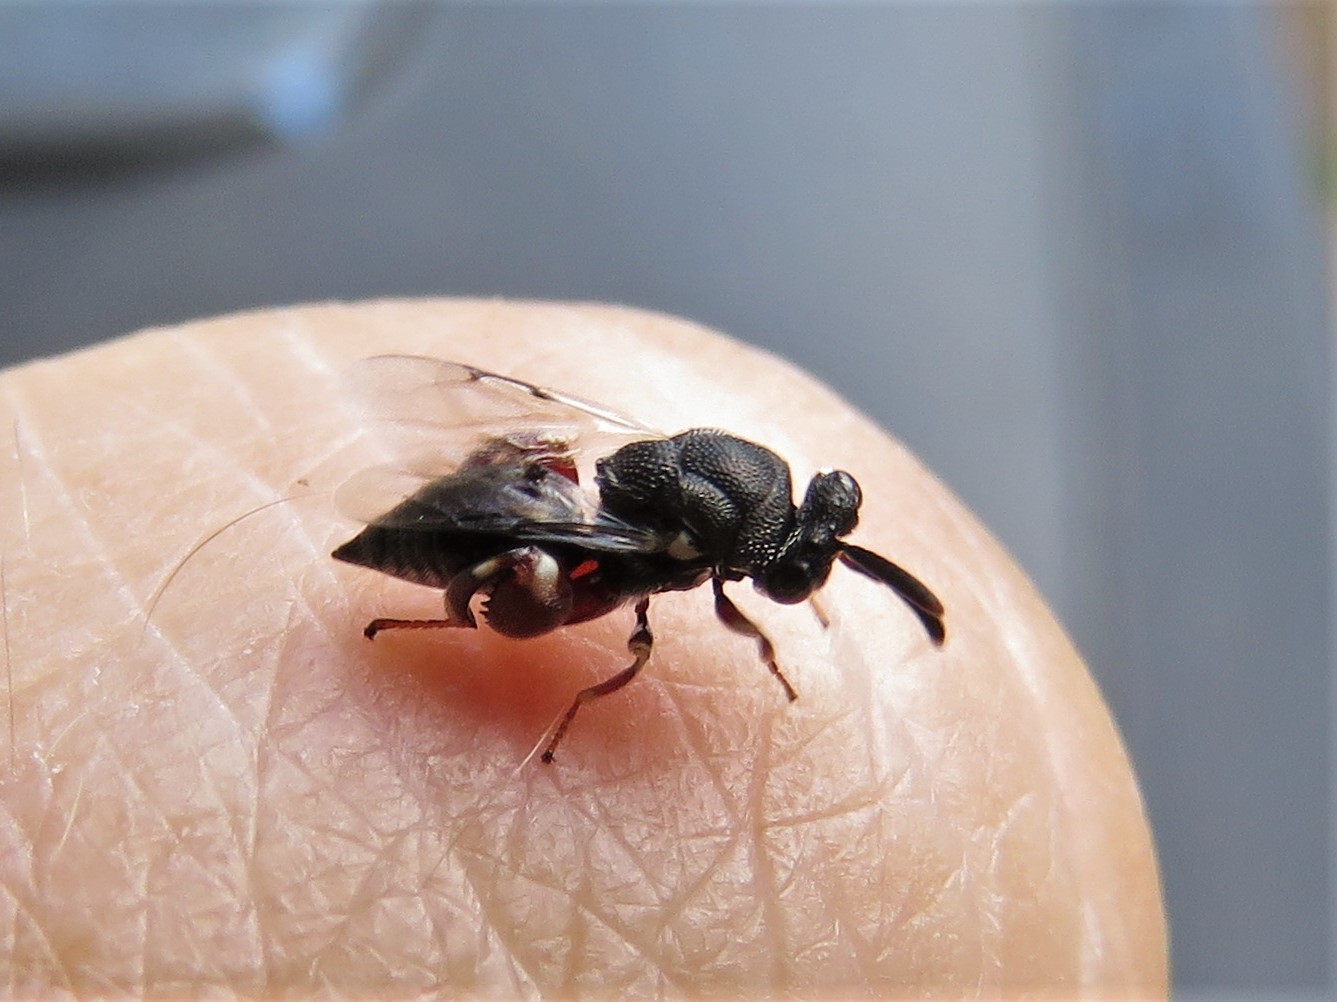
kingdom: Animalia
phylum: Arthropoda
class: Insecta
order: Hymenoptera
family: Chalcididae
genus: Brachymeria
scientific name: Brachymeria podagrica
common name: Chalcid wasp
